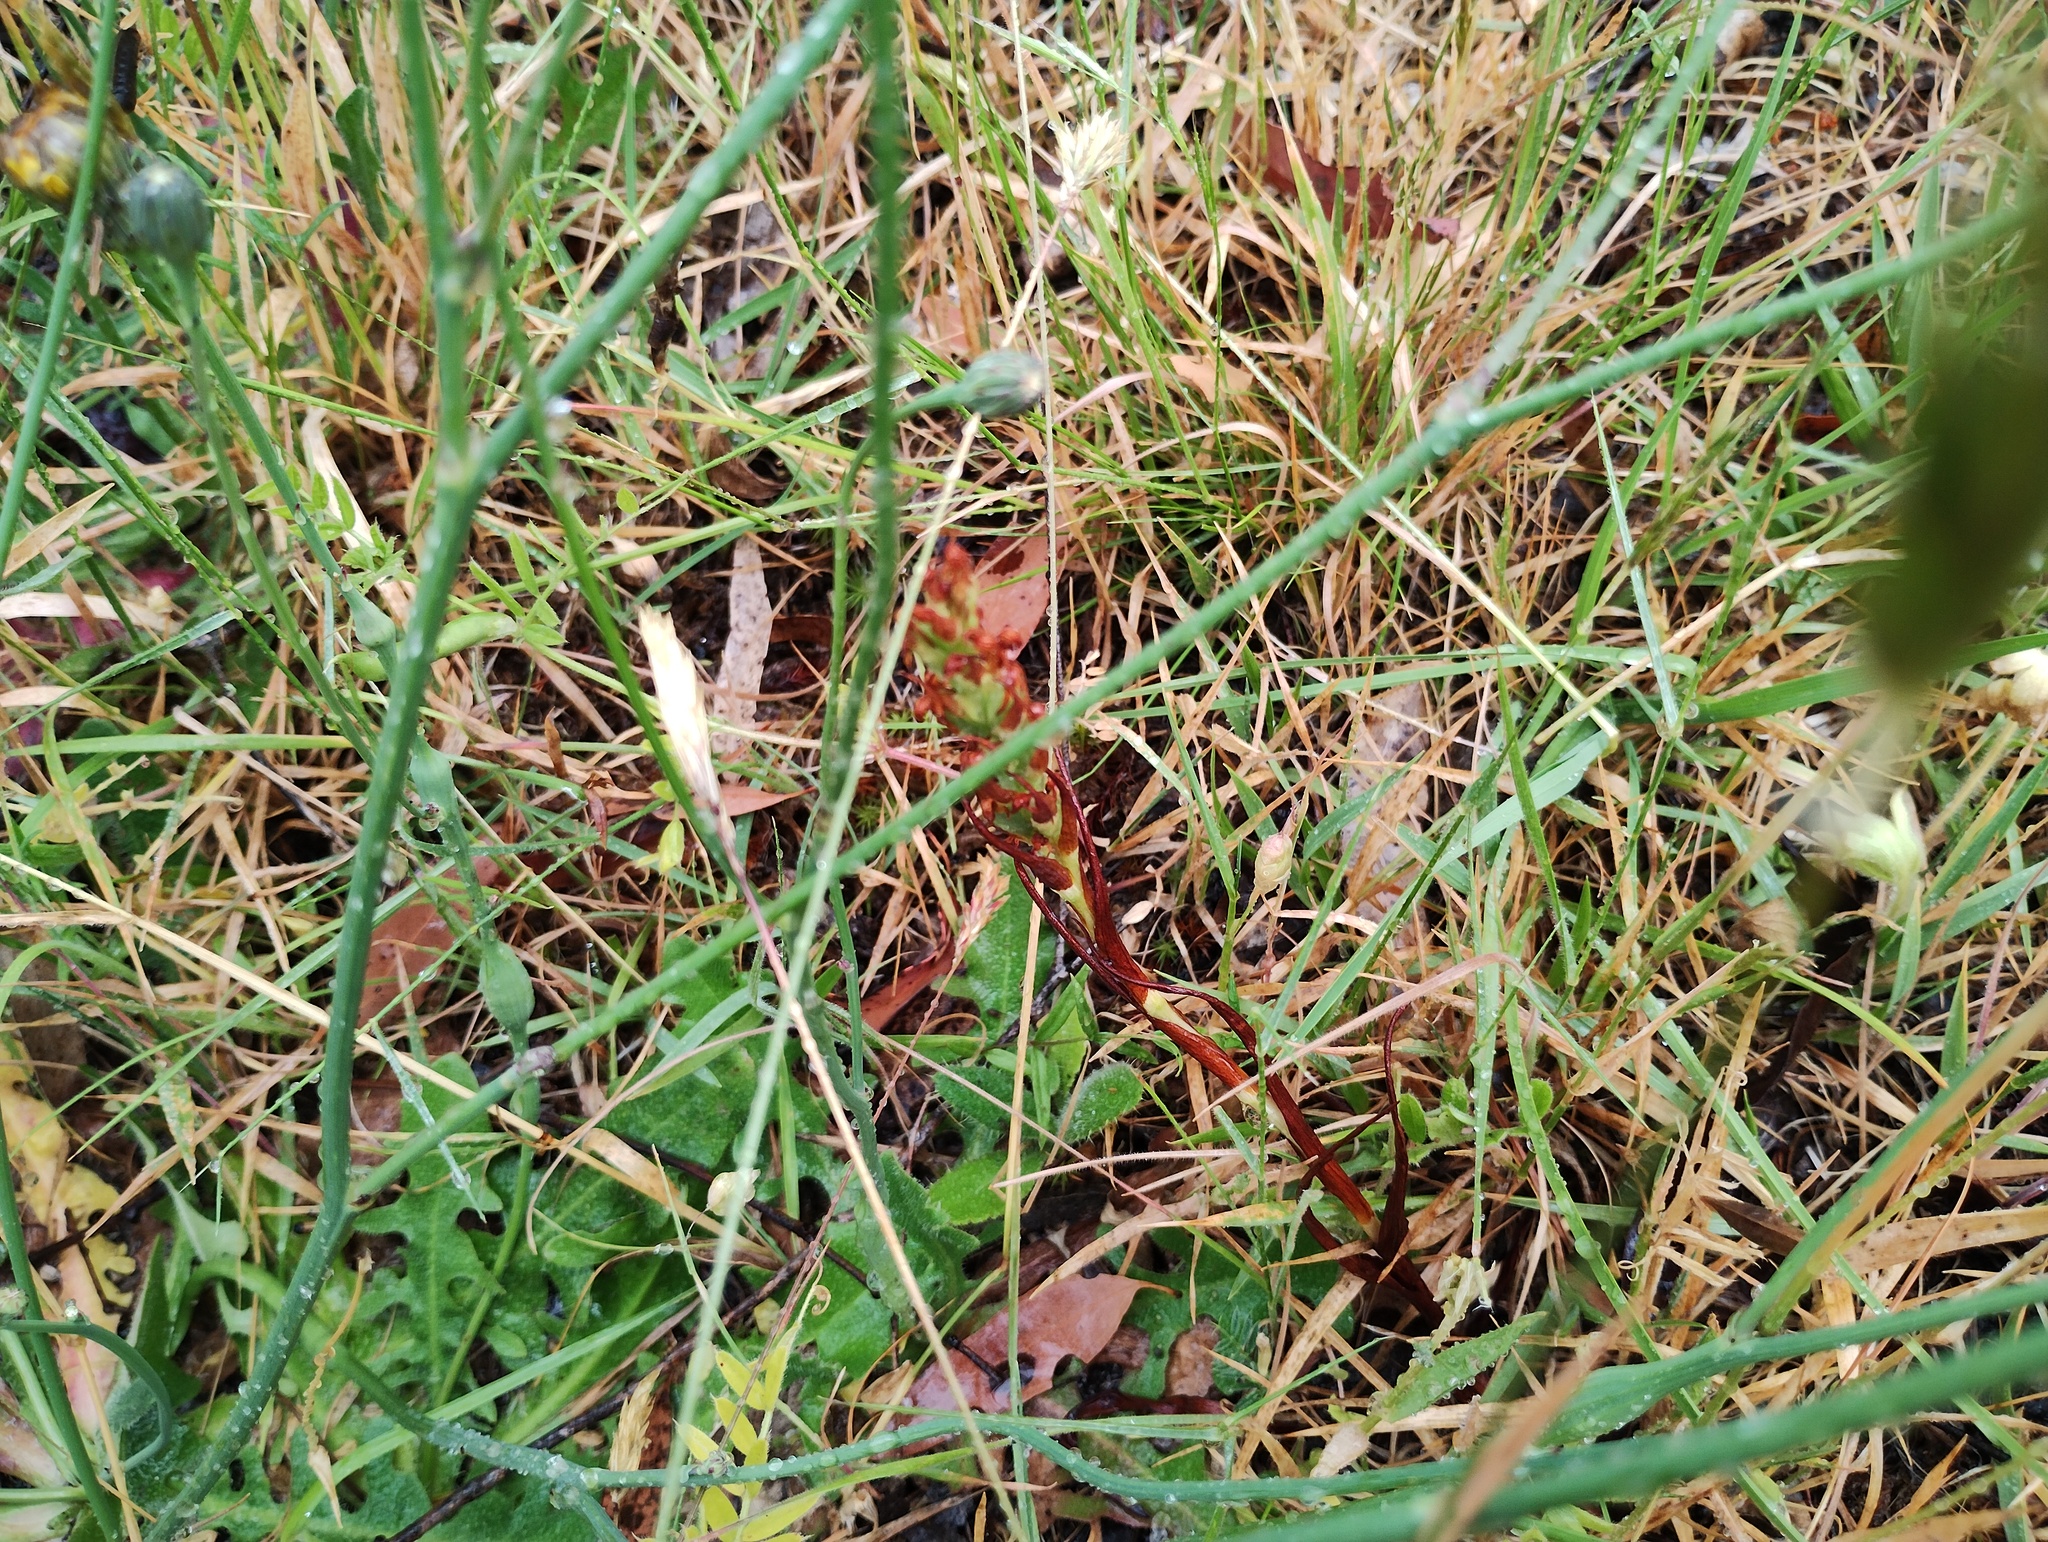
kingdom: Plantae
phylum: Tracheophyta
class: Liliopsida
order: Asparagales
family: Orchidaceae
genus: Disa
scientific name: Disa bracteata
